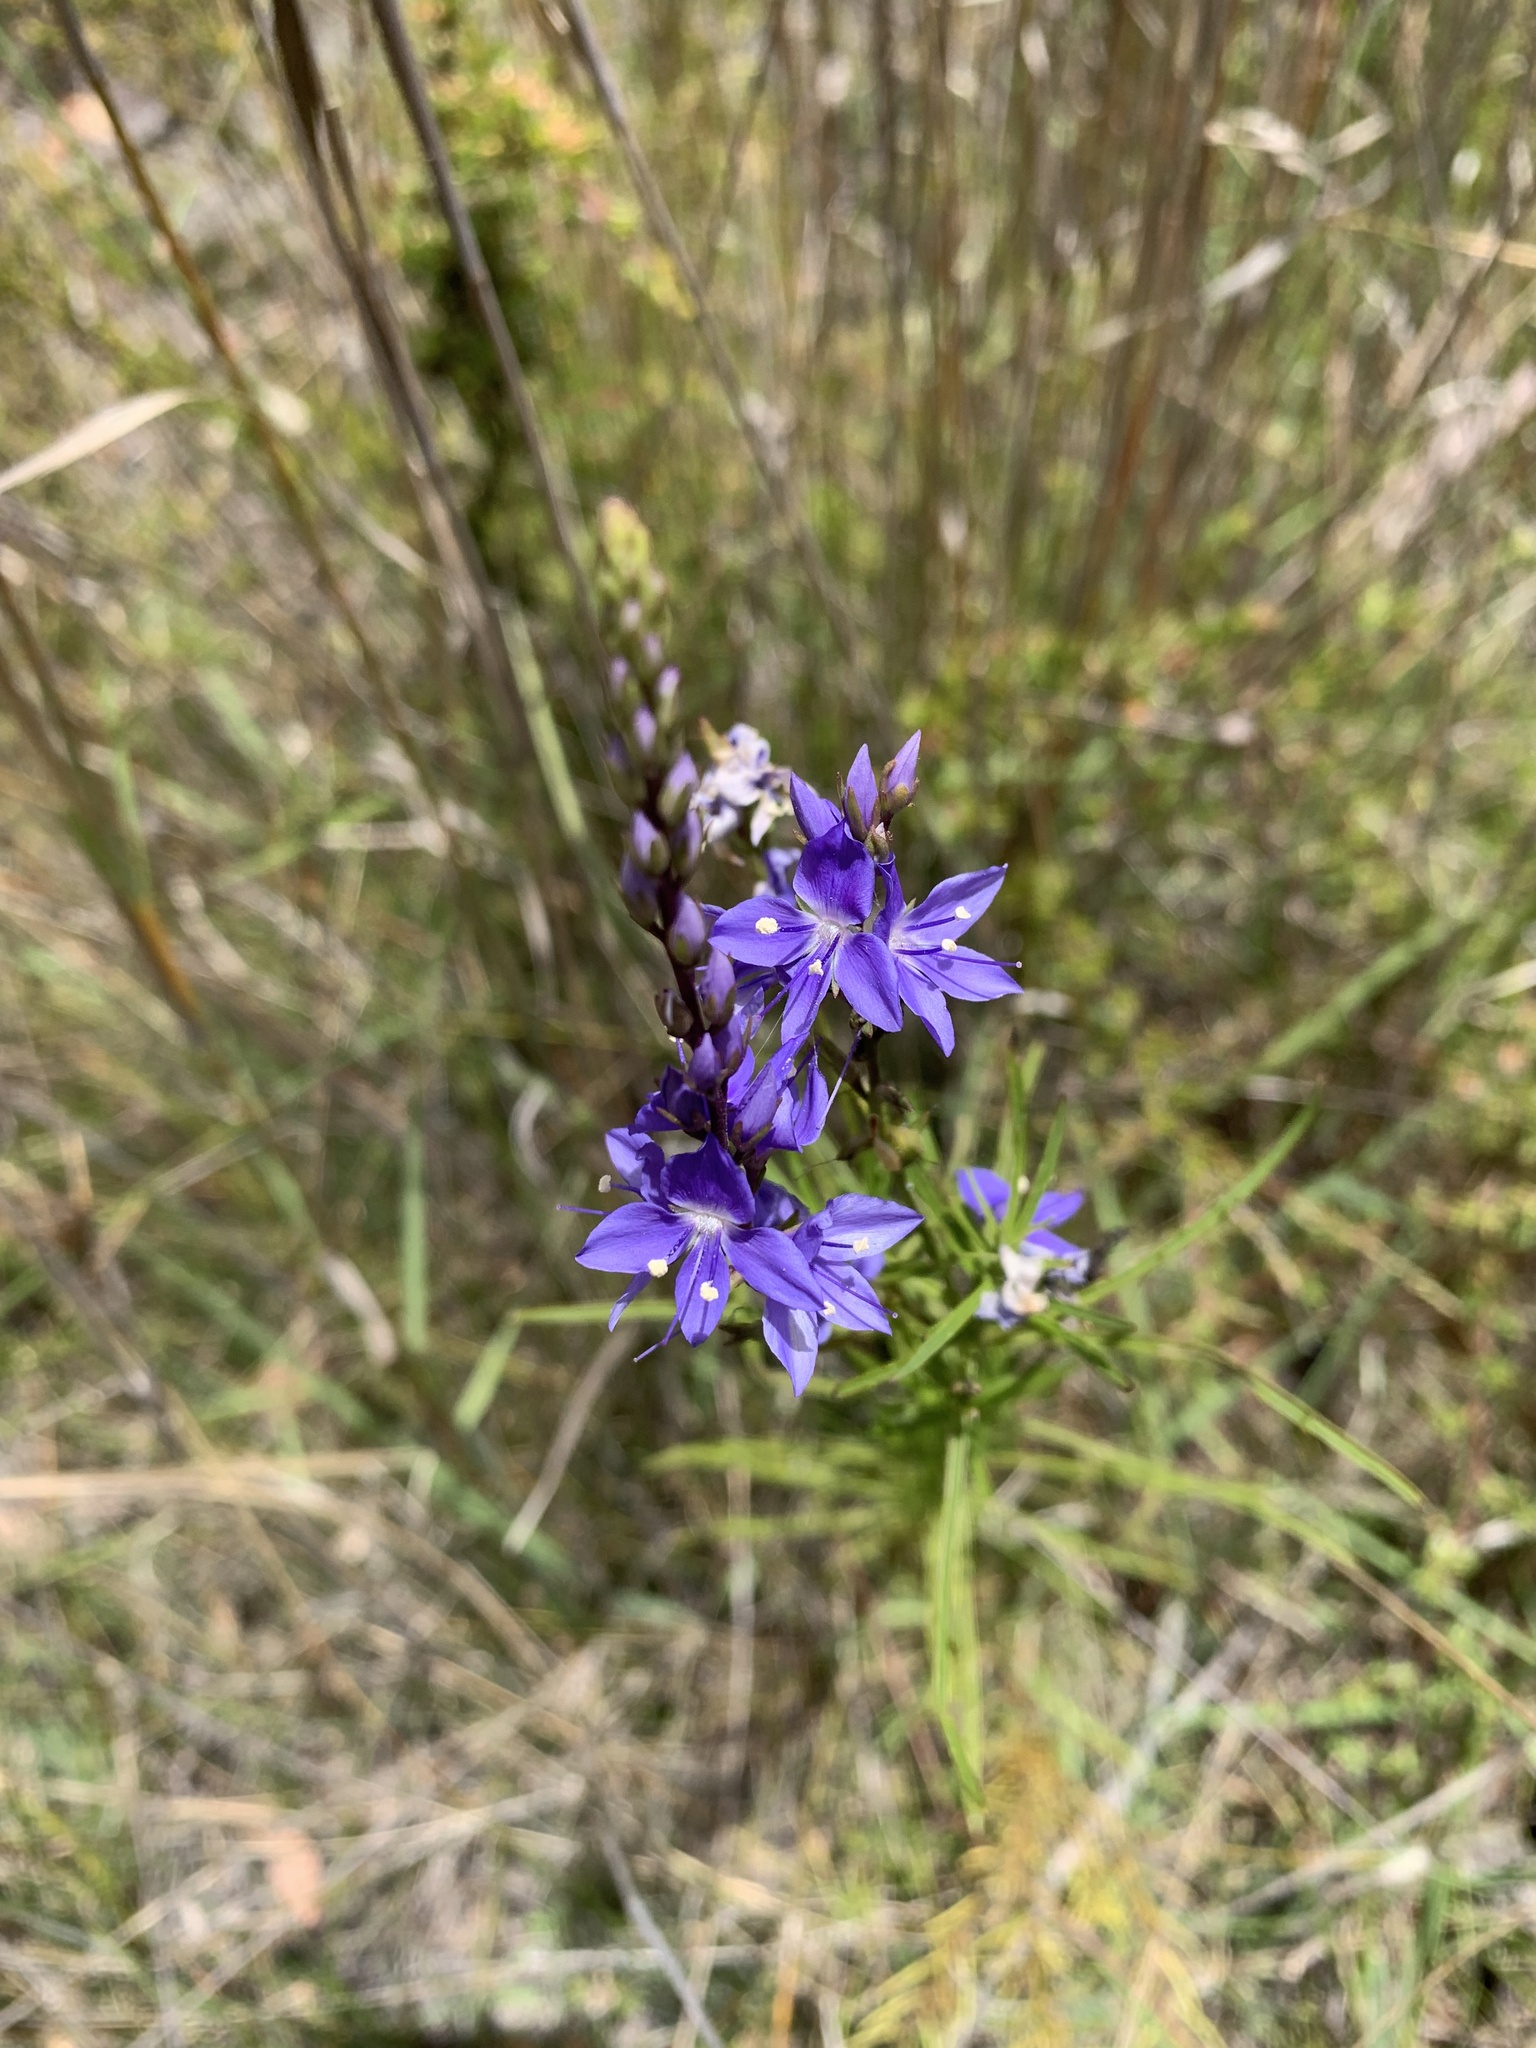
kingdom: Plantae
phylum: Tracheophyta
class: Magnoliopsida
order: Lamiales
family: Plantaginaceae
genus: Veronica
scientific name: Veronica arenaria
